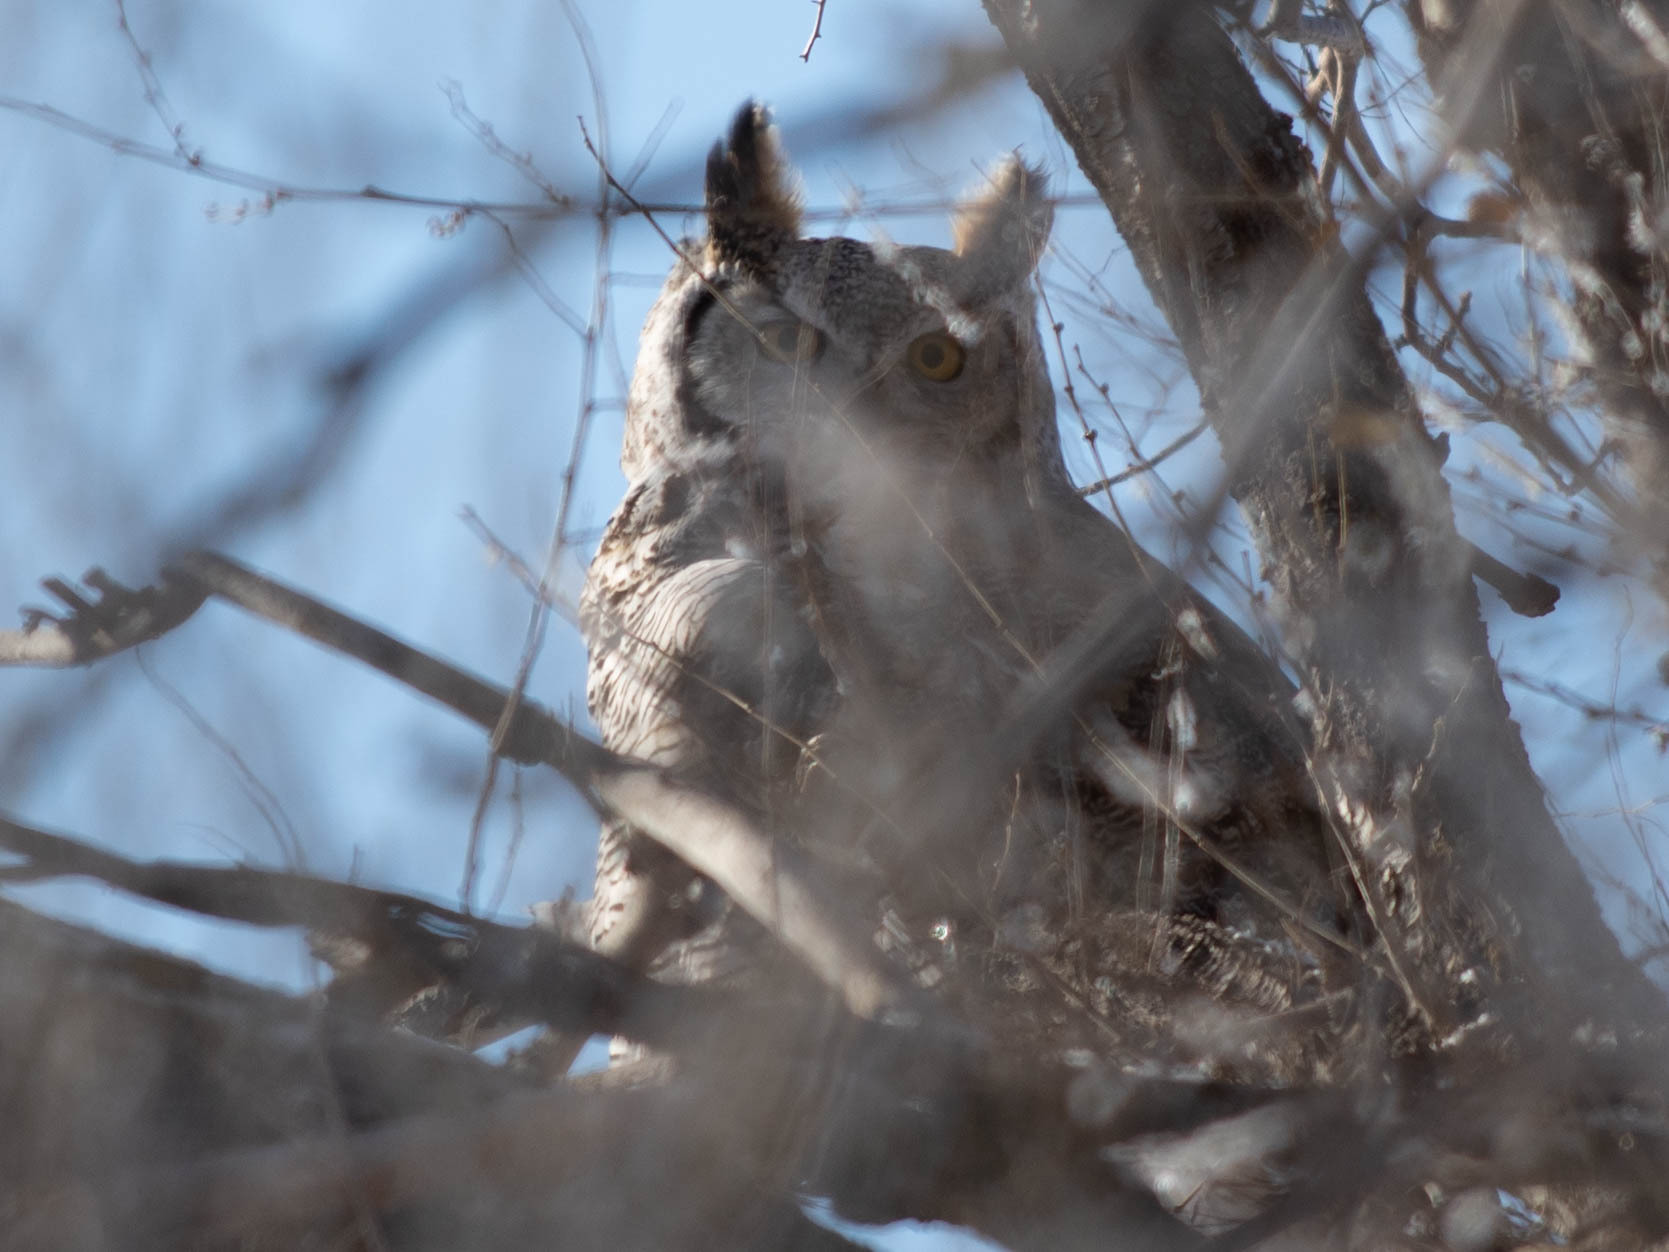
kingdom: Animalia
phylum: Chordata
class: Aves
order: Strigiformes
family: Strigidae
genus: Bubo
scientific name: Bubo virginianus
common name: Great horned owl
